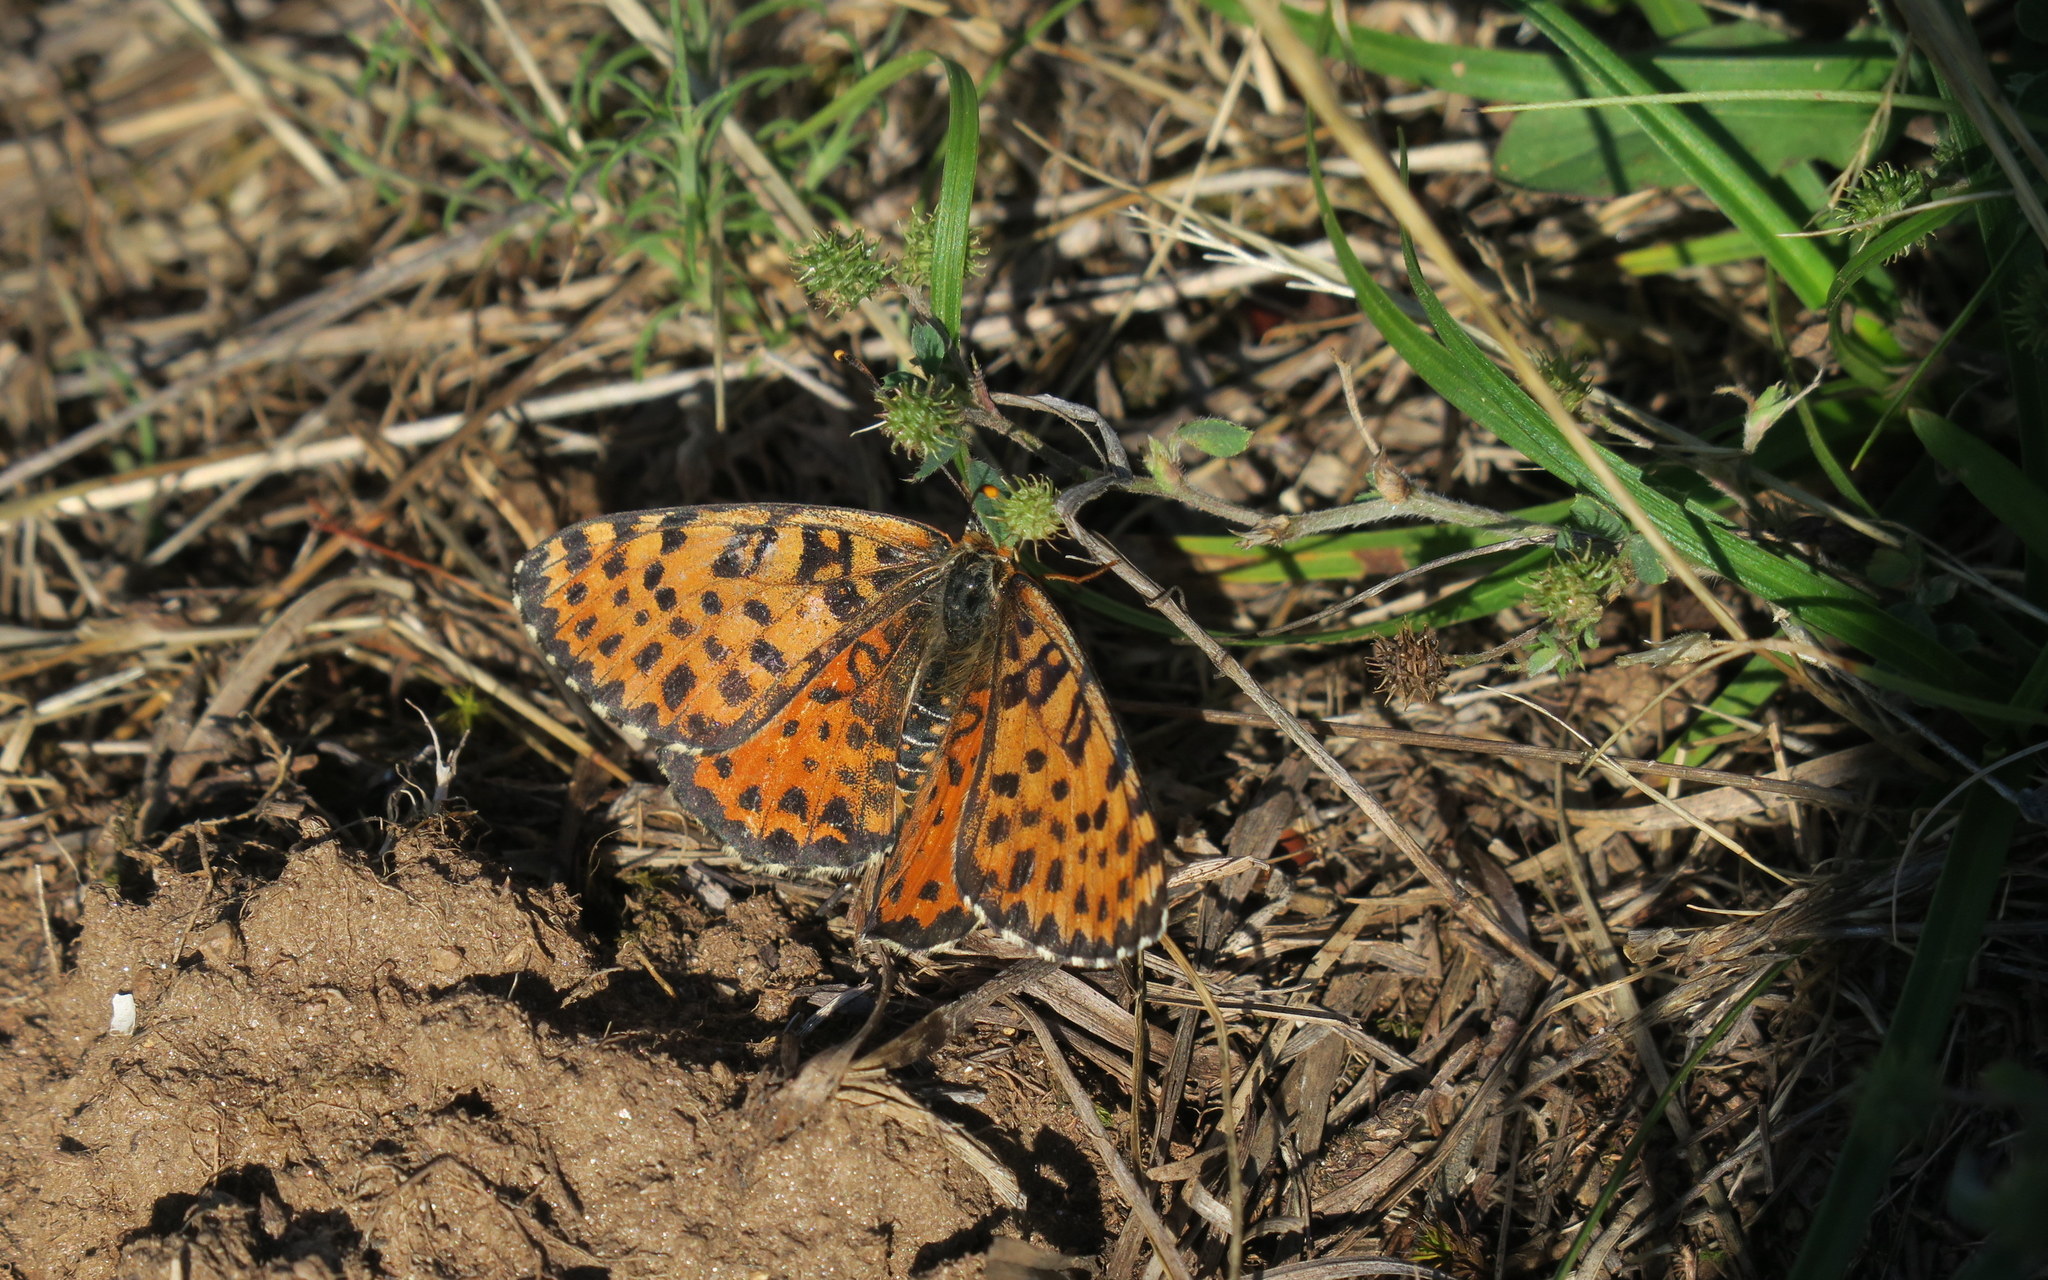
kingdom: Animalia
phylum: Arthropoda
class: Insecta
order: Lepidoptera
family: Nymphalidae
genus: Melitaea
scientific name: Melitaea didyma
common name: Spotted fritillary
